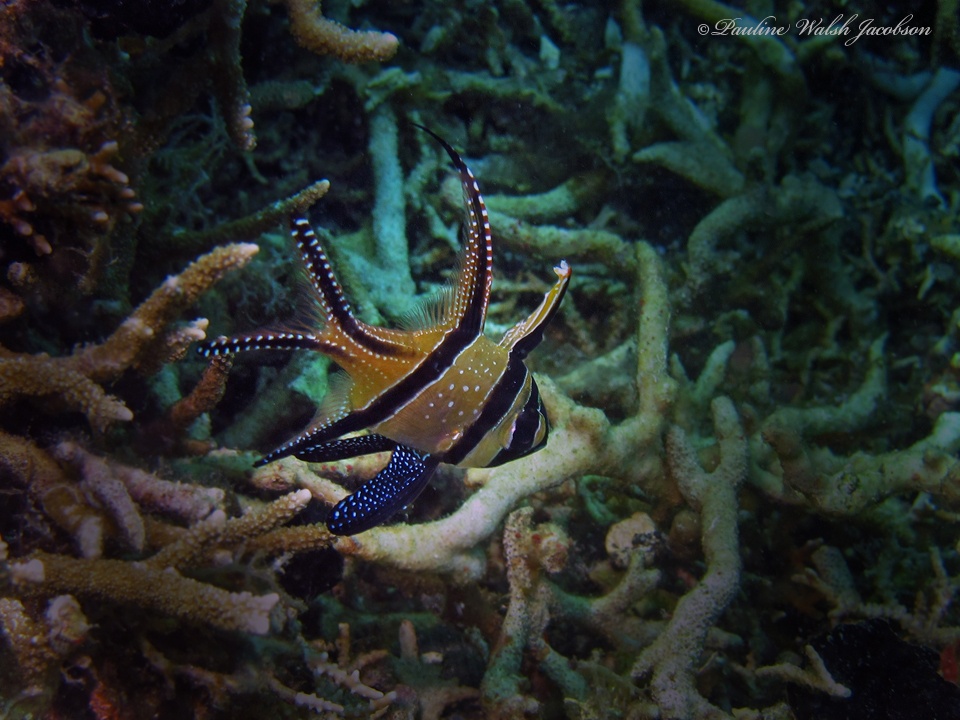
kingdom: Animalia
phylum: Chordata
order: Perciformes
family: Apogonidae
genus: Pterapogon
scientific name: Pterapogon kauderni
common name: Banggai cardinalfish
